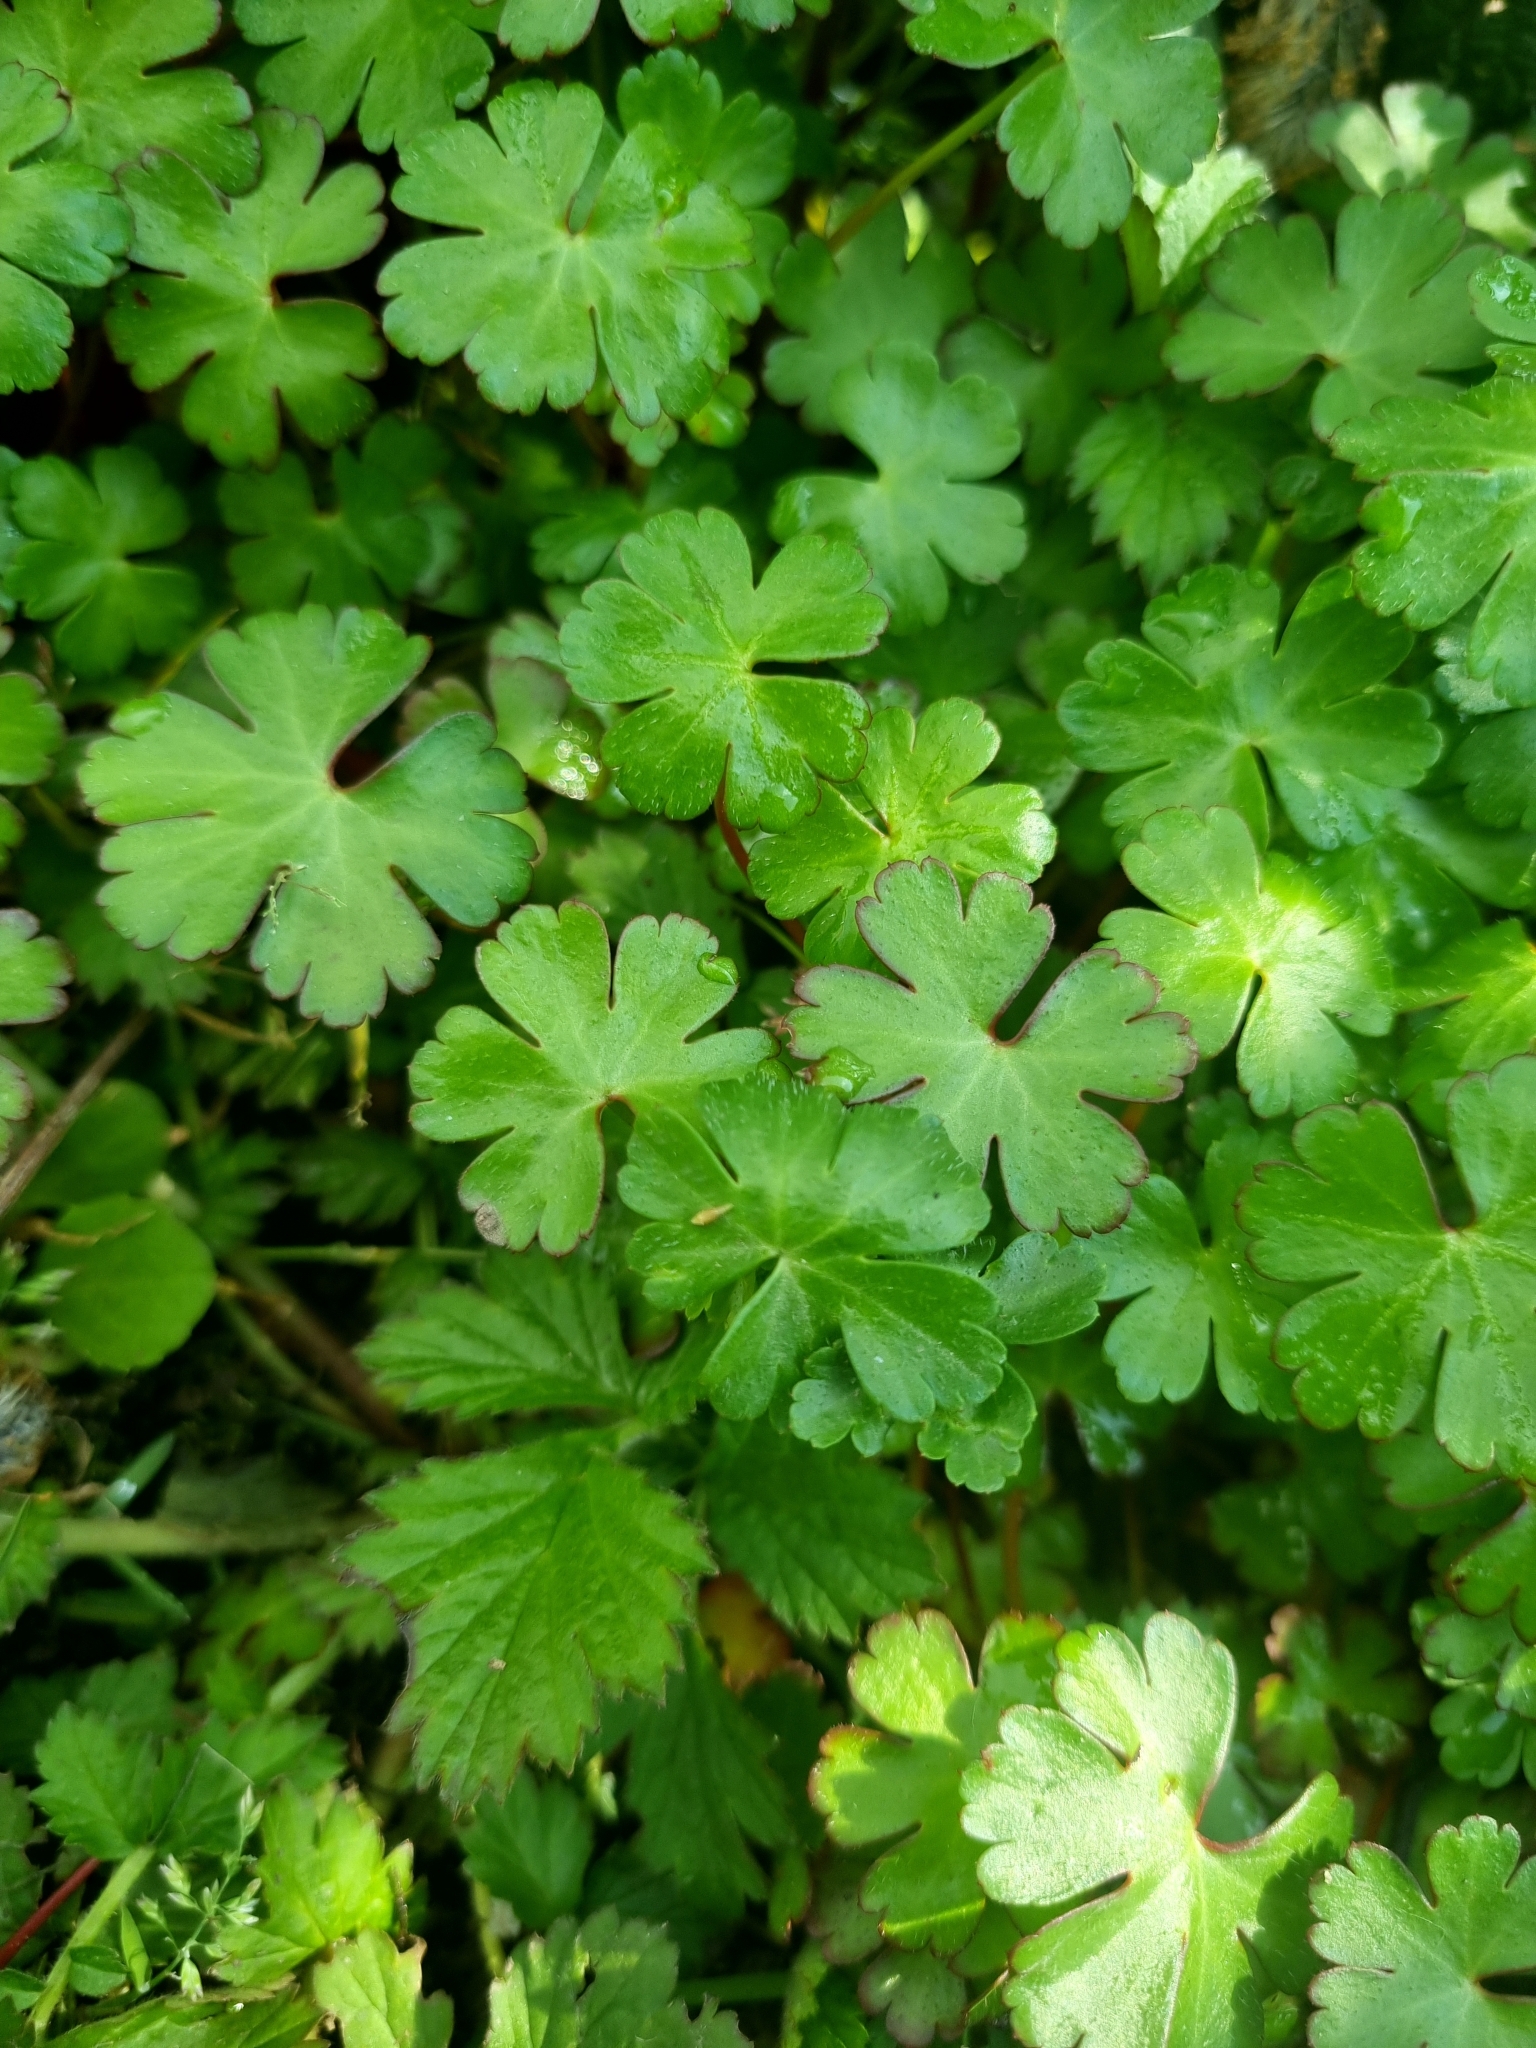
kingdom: Plantae
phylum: Tracheophyta
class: Magnoliopsida
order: Geraniales
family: Geraniaceae
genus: Geranium
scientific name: Geranium lucidum
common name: Shining crane's-bill
